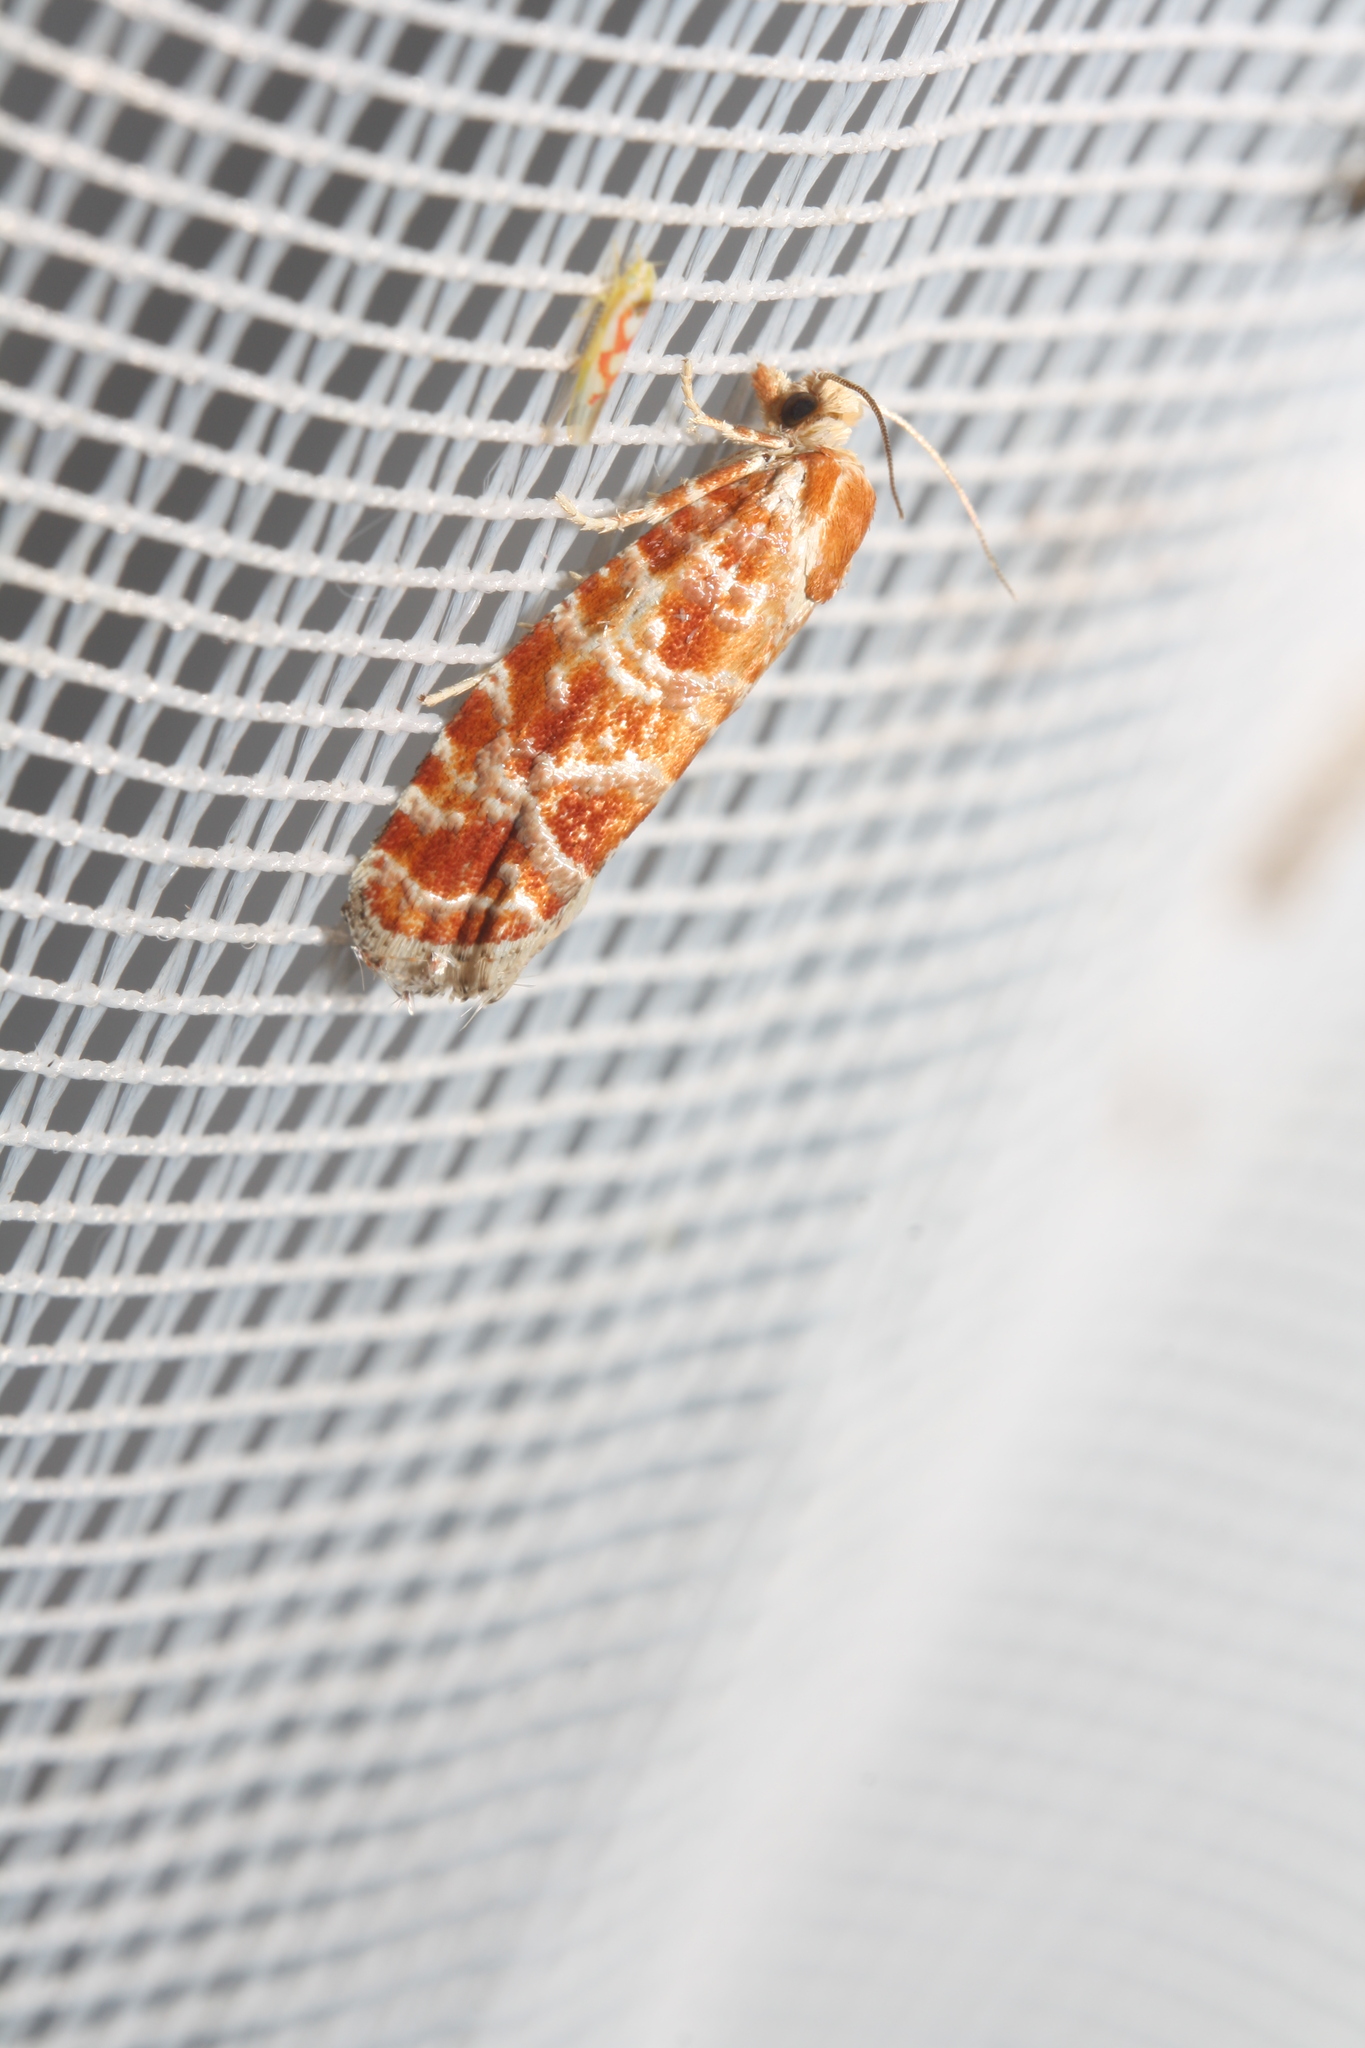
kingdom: Animalia
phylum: Arthropoda
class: Insecta
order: Lepidoptera
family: Tortricidae
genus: Rhyacionia
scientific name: Rhyacionia pinicolana
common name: Orange-spotted shoot
